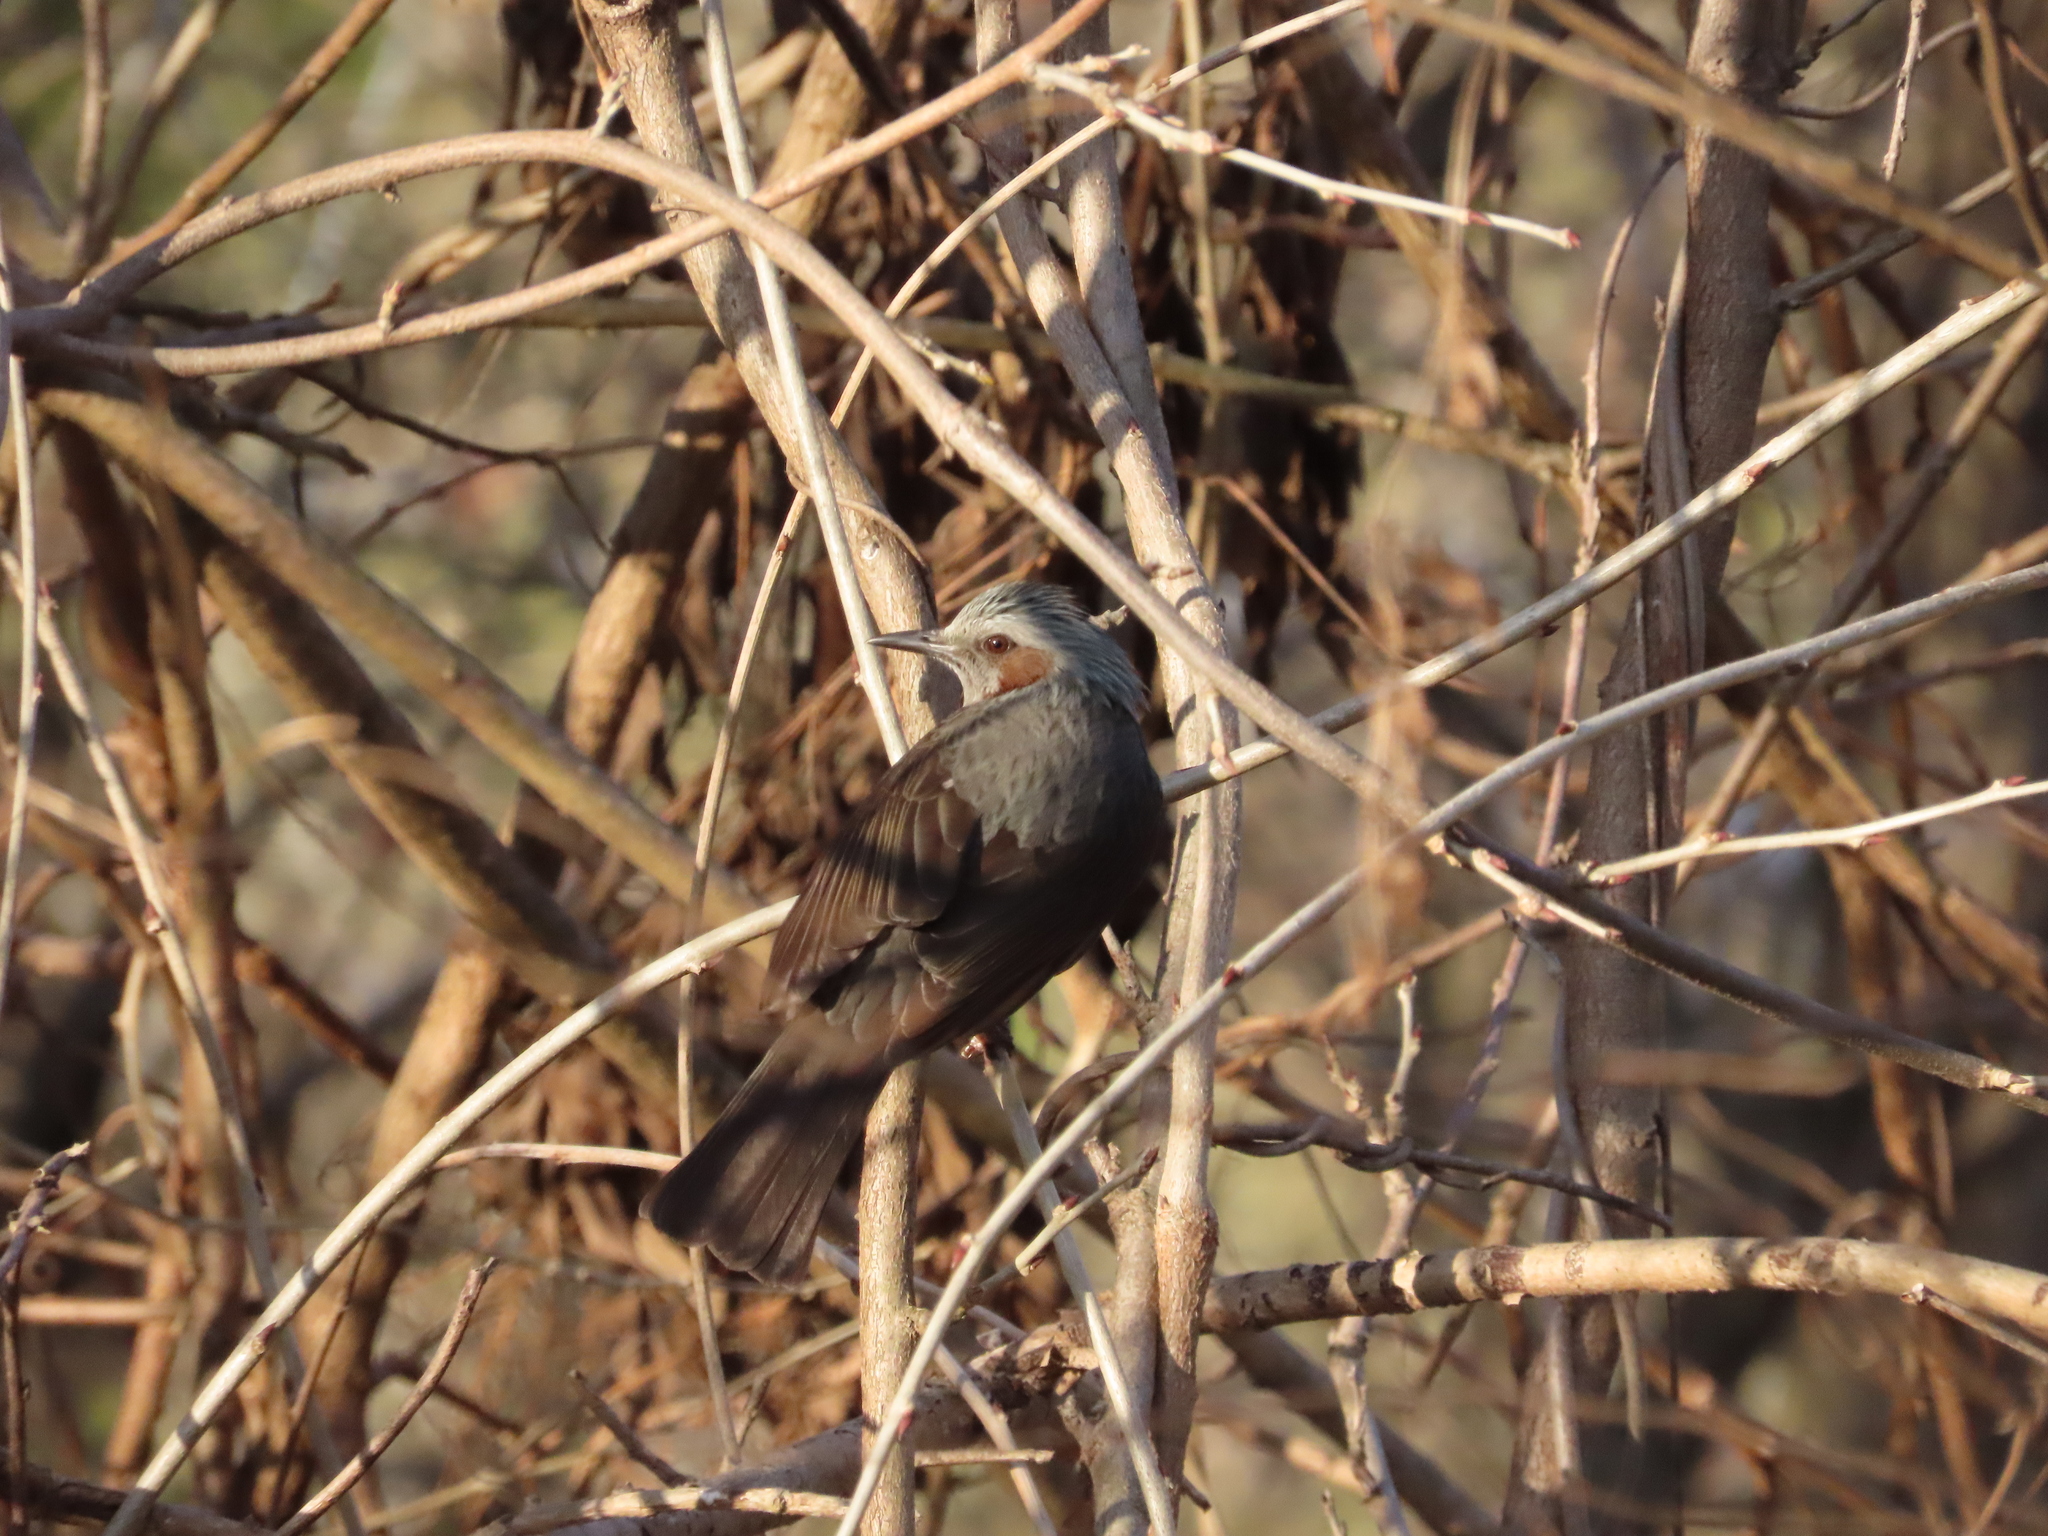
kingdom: Animalia
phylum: Chordata
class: Aves
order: Passeriformes
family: Pycnonotidae
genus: Hypsipetes
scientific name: Hypsipetes amaurotis
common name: Brown-eared bulbul
